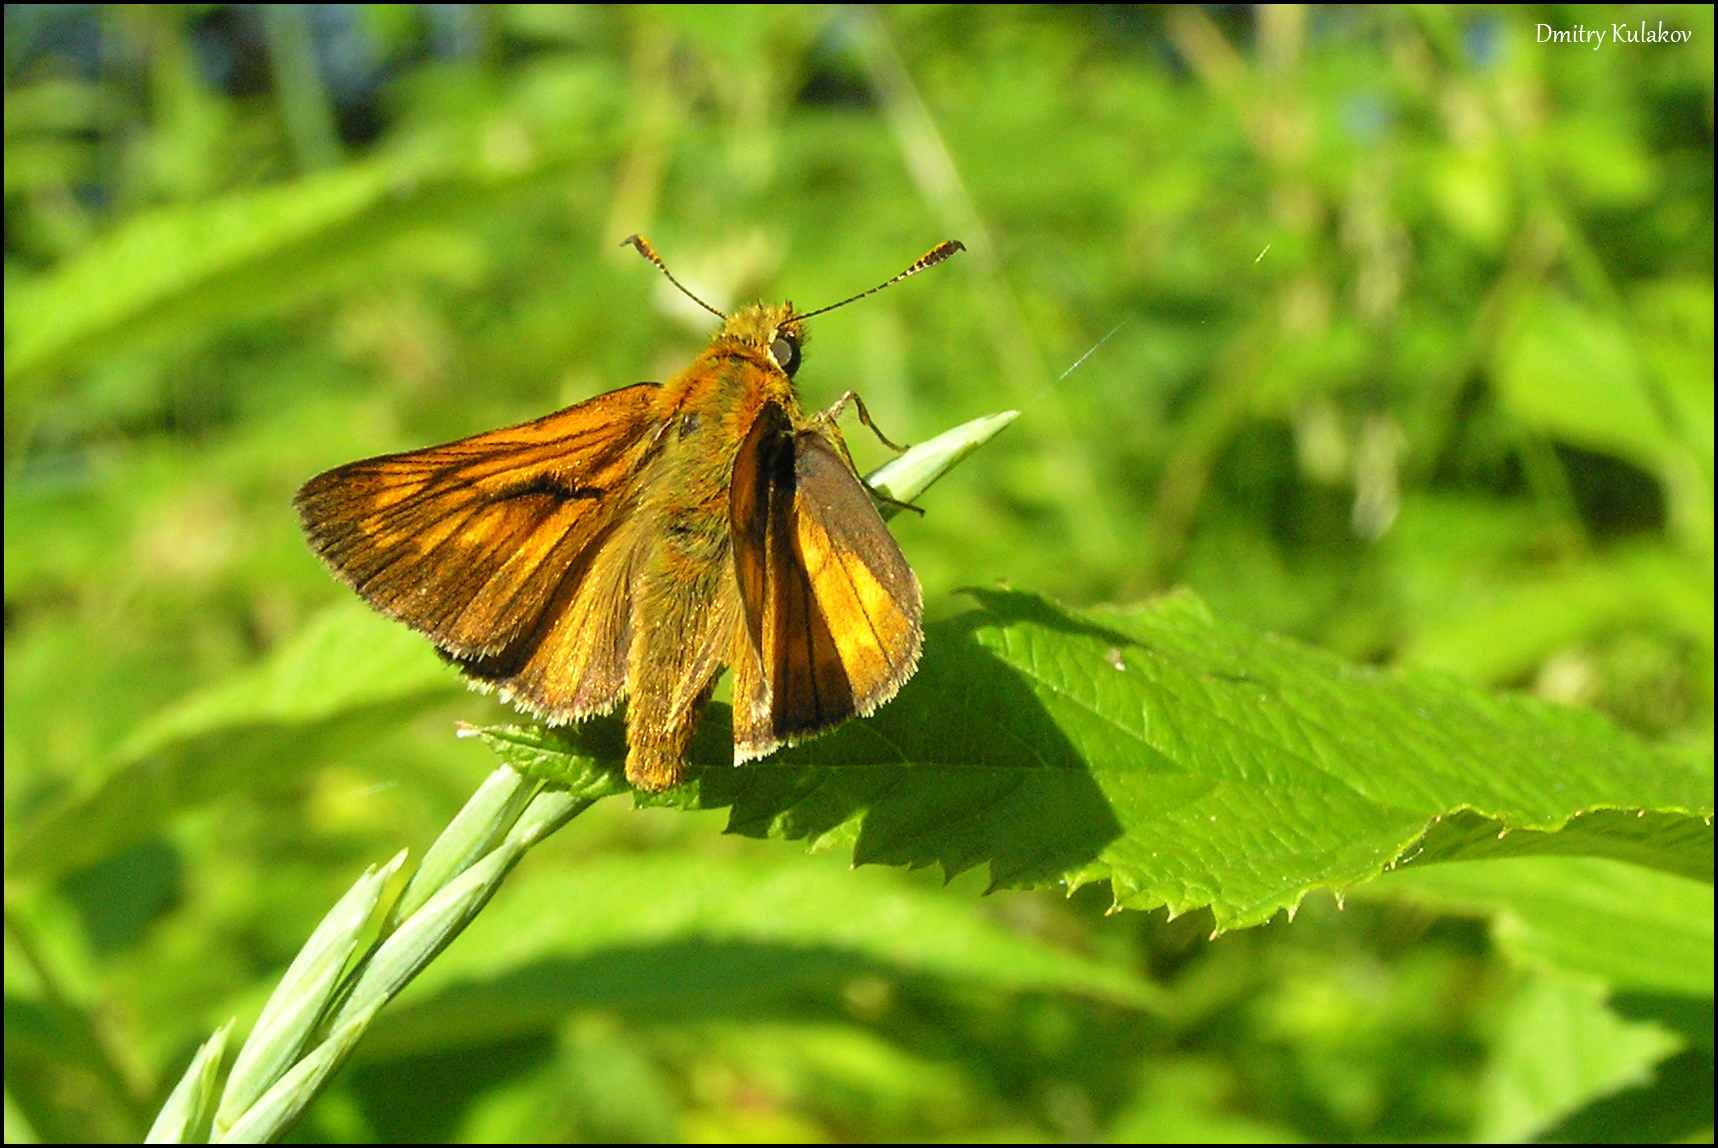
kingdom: Animalia
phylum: Arthropoda
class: Insecta
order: Lepidoptera
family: Hesperiidae
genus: Ochlodes
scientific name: Ochlodes venata
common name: Large skipper
